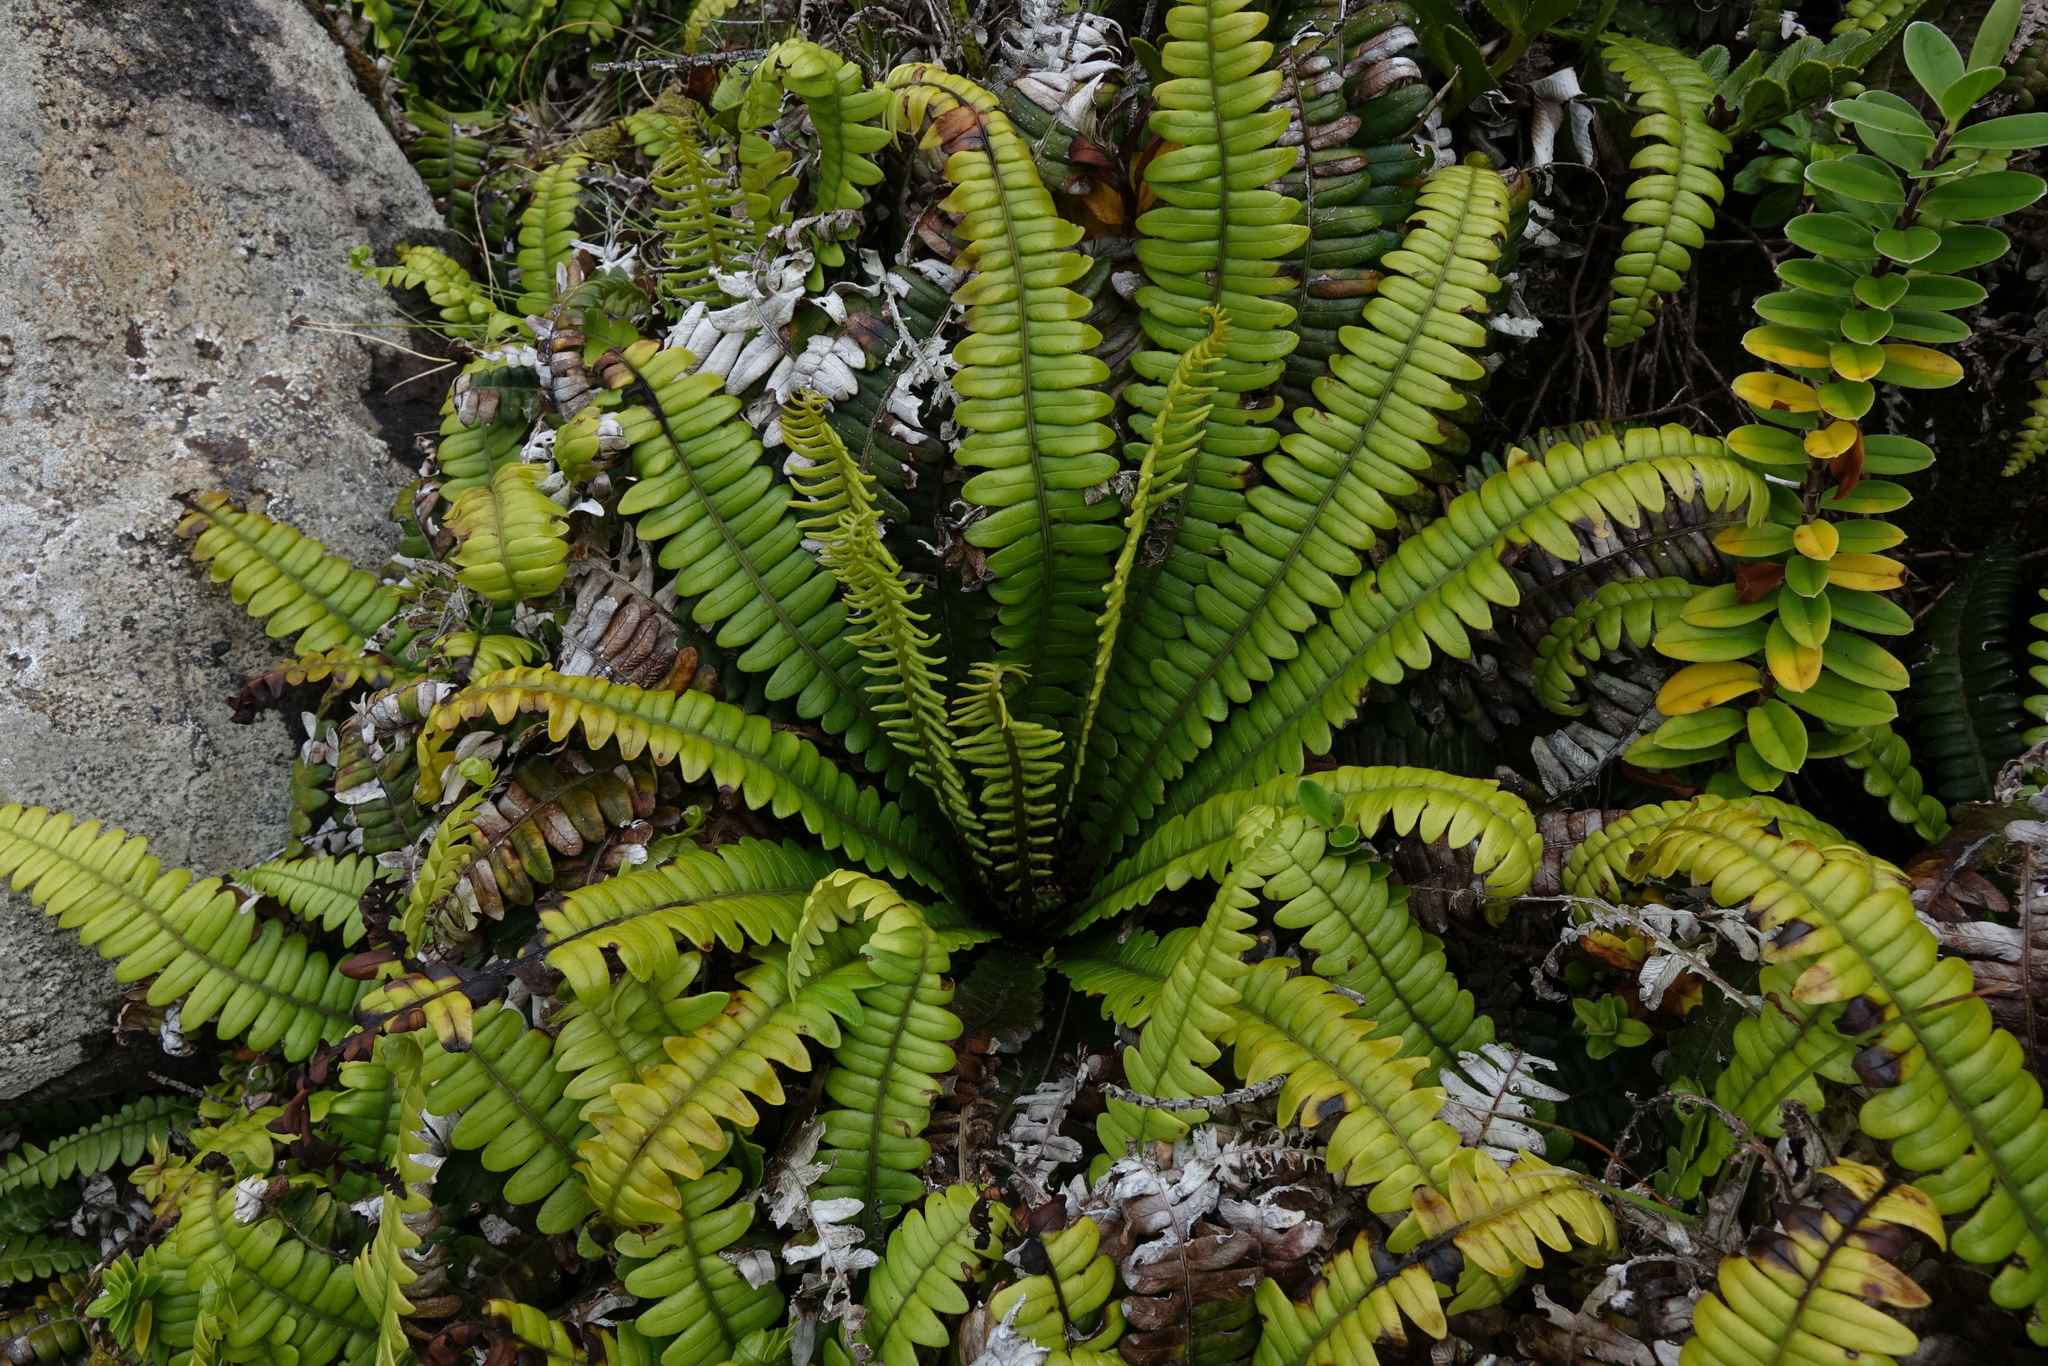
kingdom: Plantae
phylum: Tracheophyta
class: Polypodiopsida
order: Polypodiales
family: Blechnaceae
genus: Austroblechnum
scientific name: Austroblechnum durum
